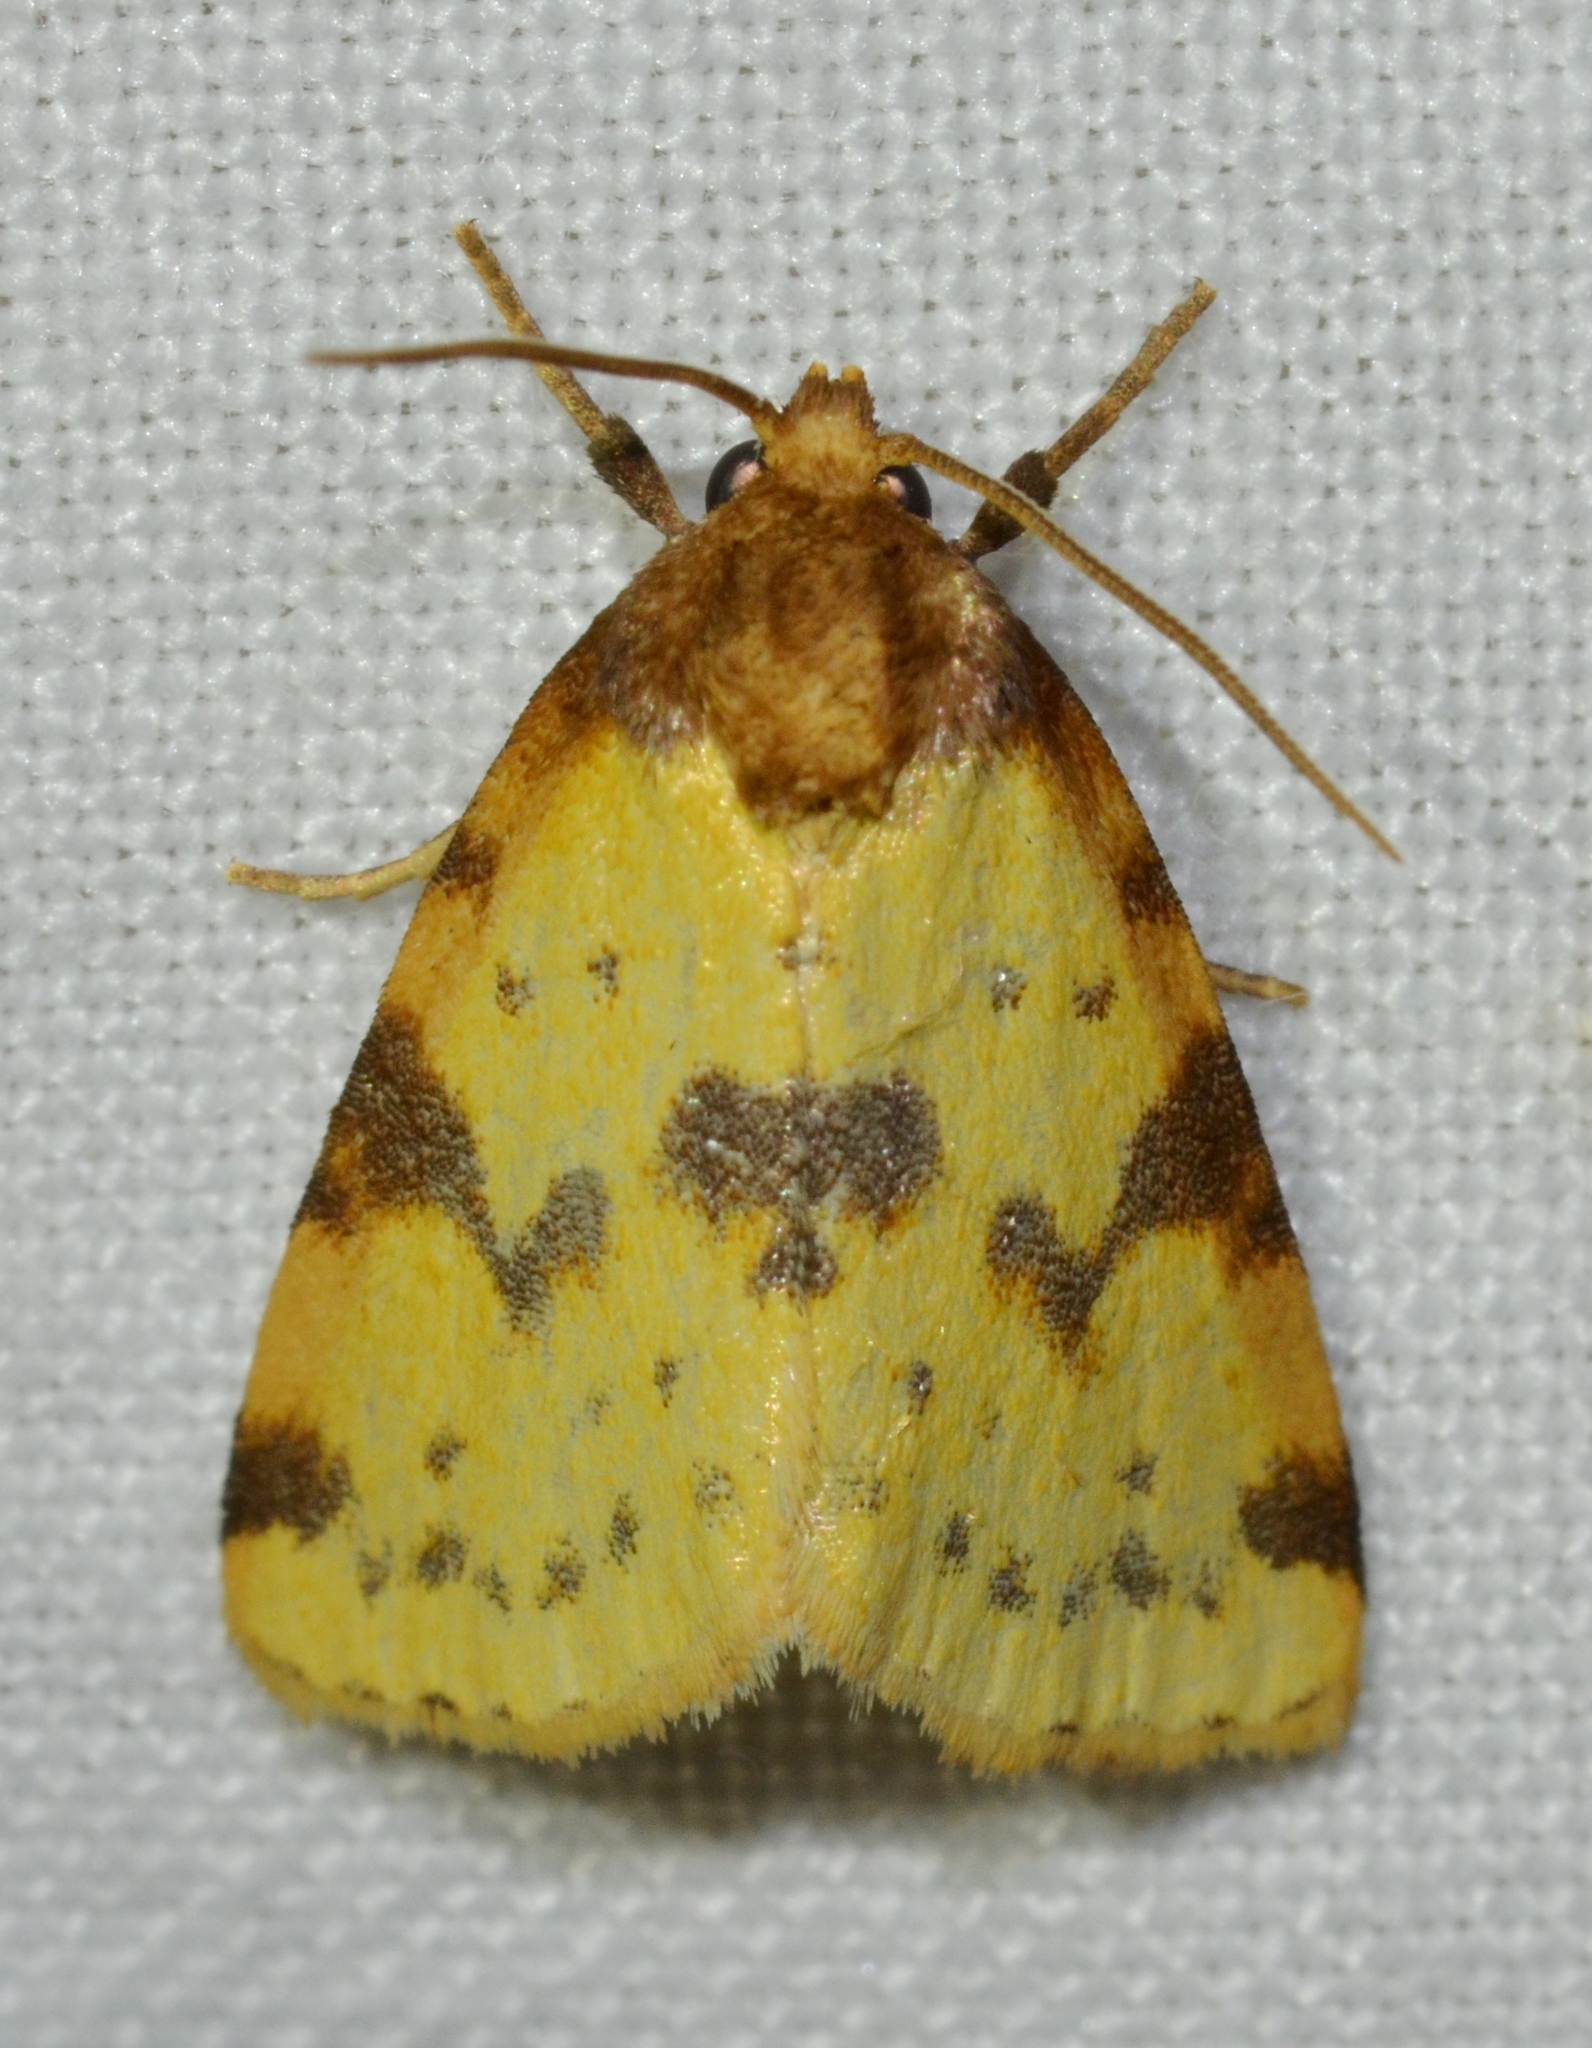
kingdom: Animalia
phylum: Arthropoda
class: Insecta
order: Lepidoptera
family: Noctuidae
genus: Azenia
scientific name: Azenia obtusa
